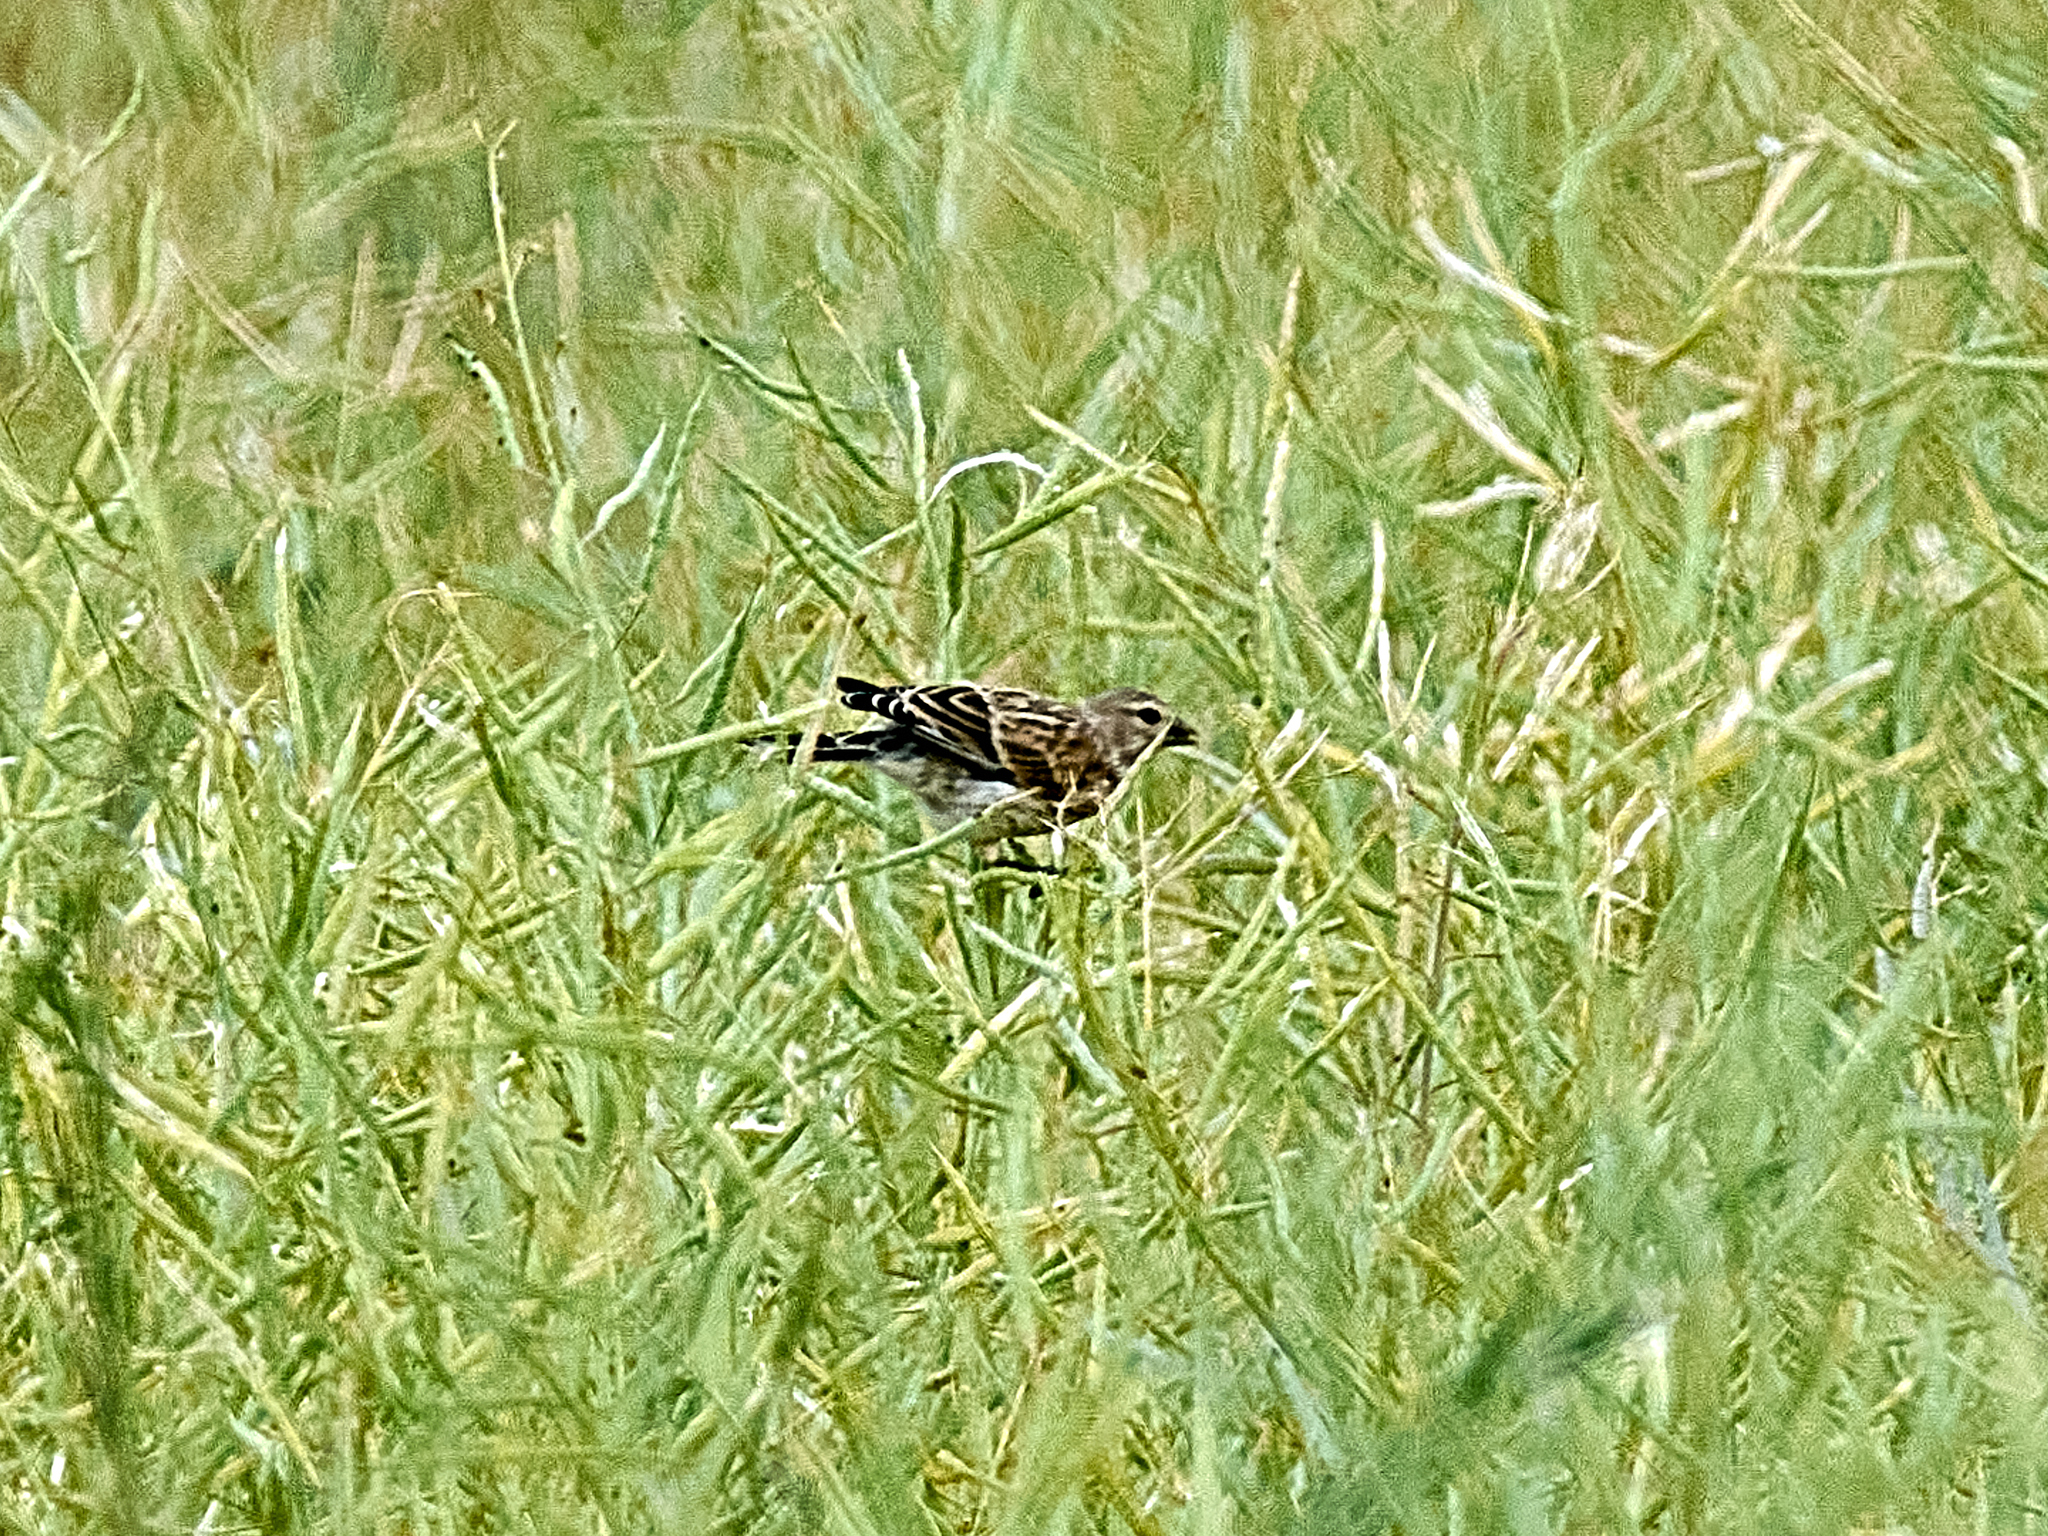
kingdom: Animalia
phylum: Chordata
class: Aves
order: Passeriformes
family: Fringillidae
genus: Linaria
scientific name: Linaria cannabina
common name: Common linnet
